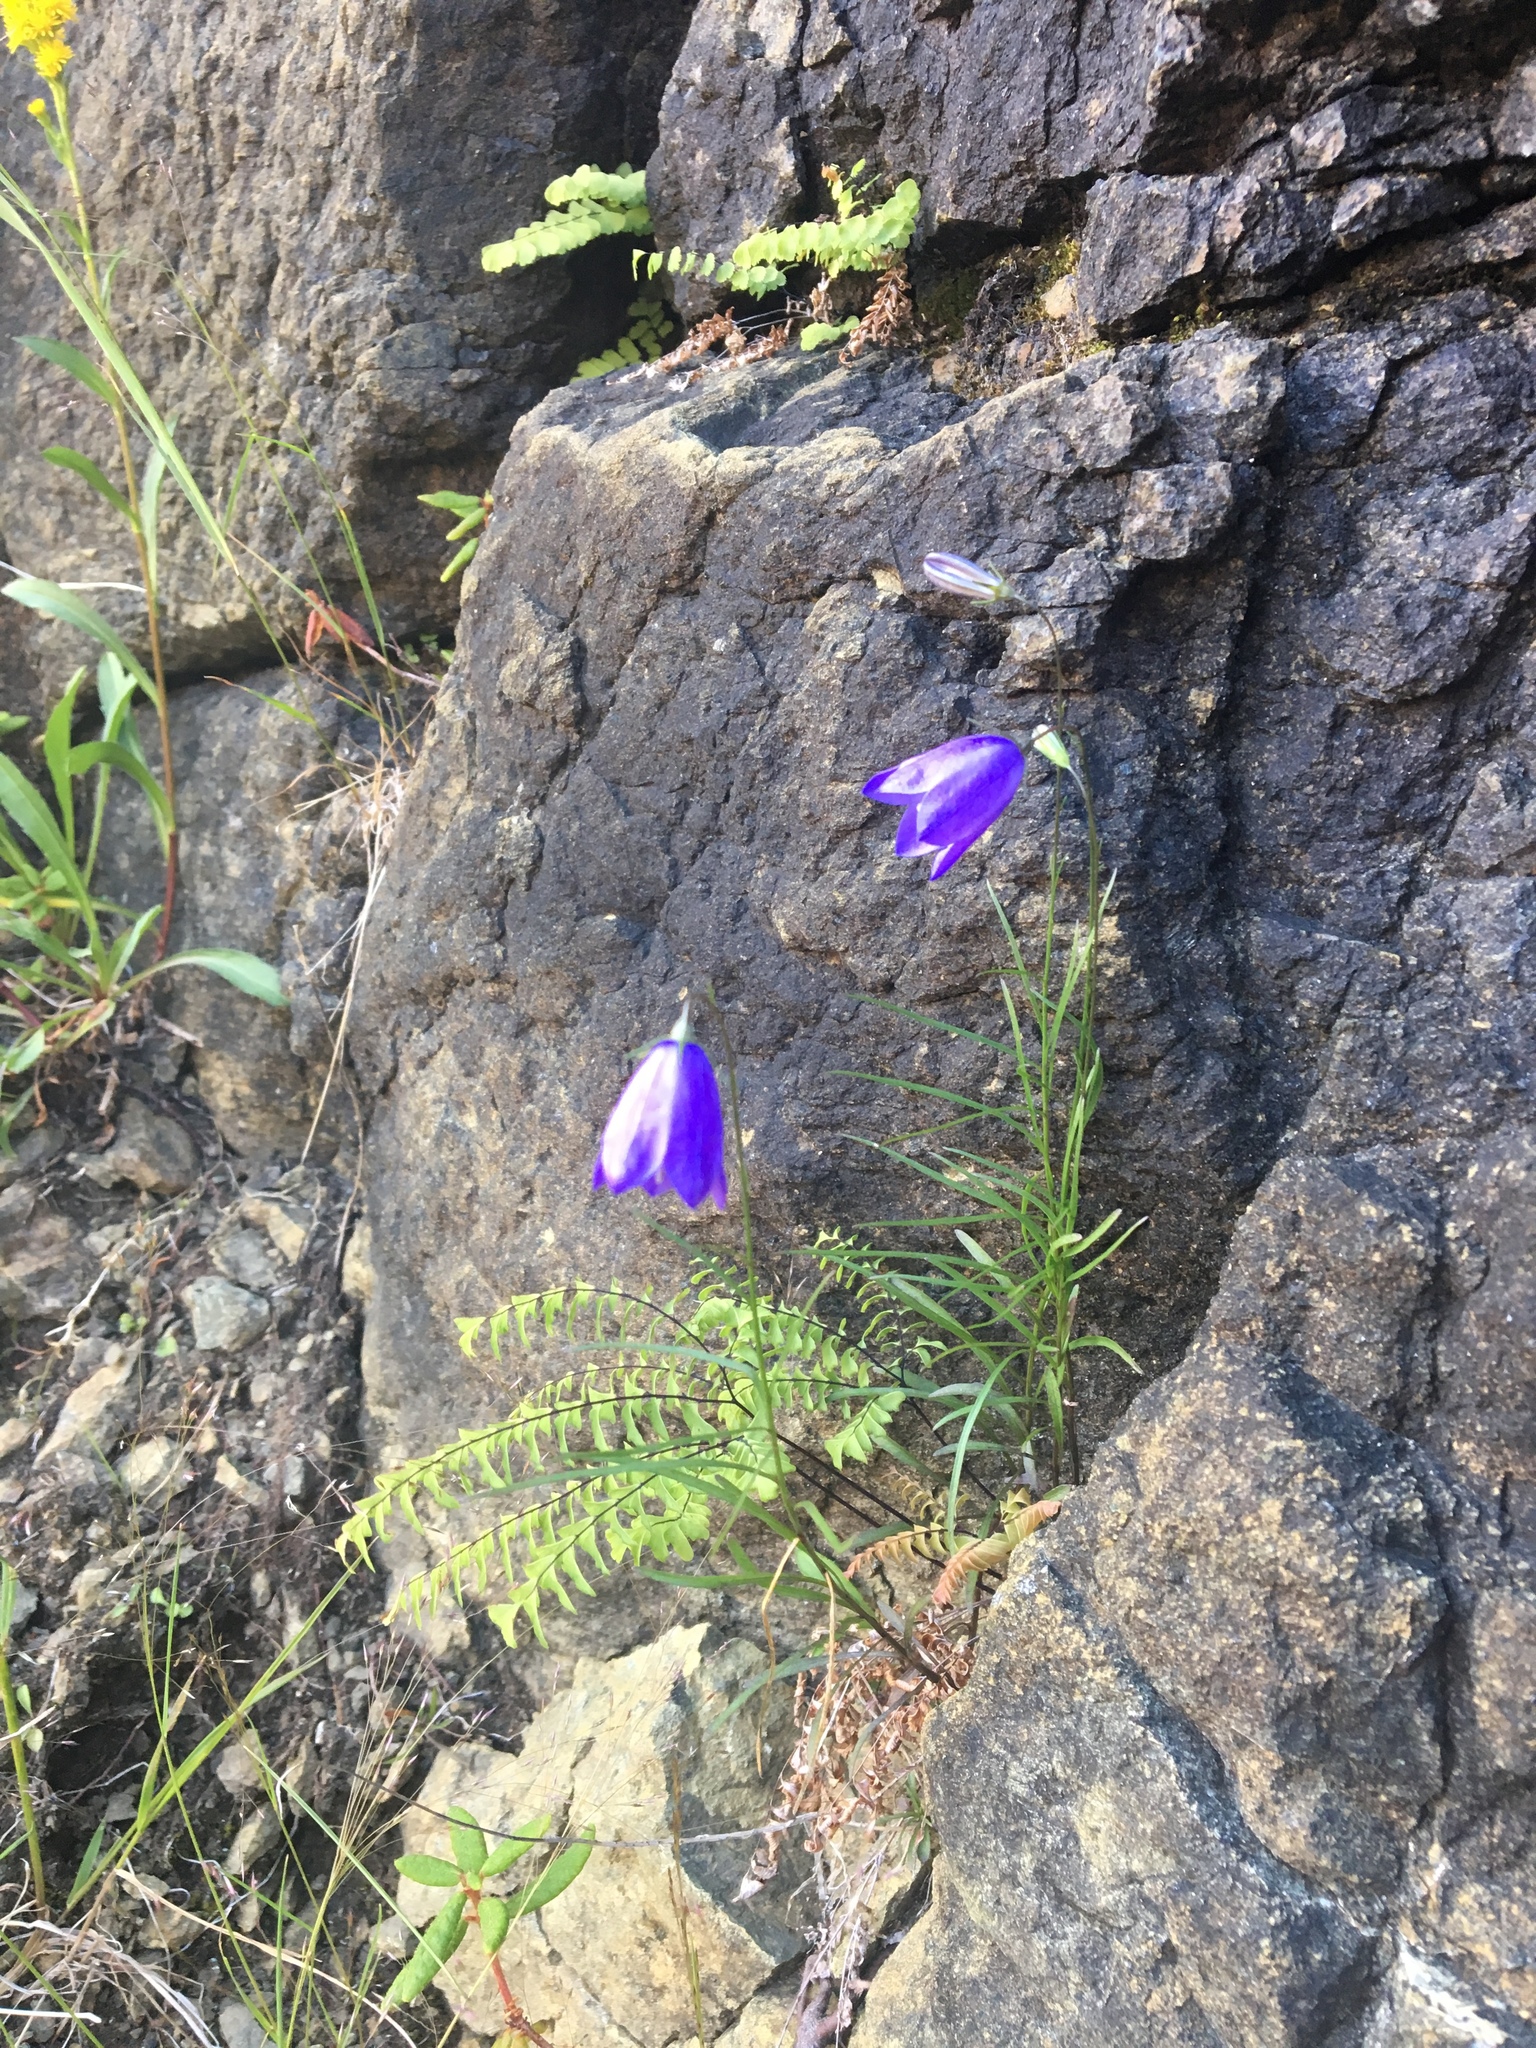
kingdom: Plantae
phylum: Tracheophyta
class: Magnoliopsida
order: Asterales
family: Campanulaceae
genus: Campanula
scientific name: Campanula intercedens
